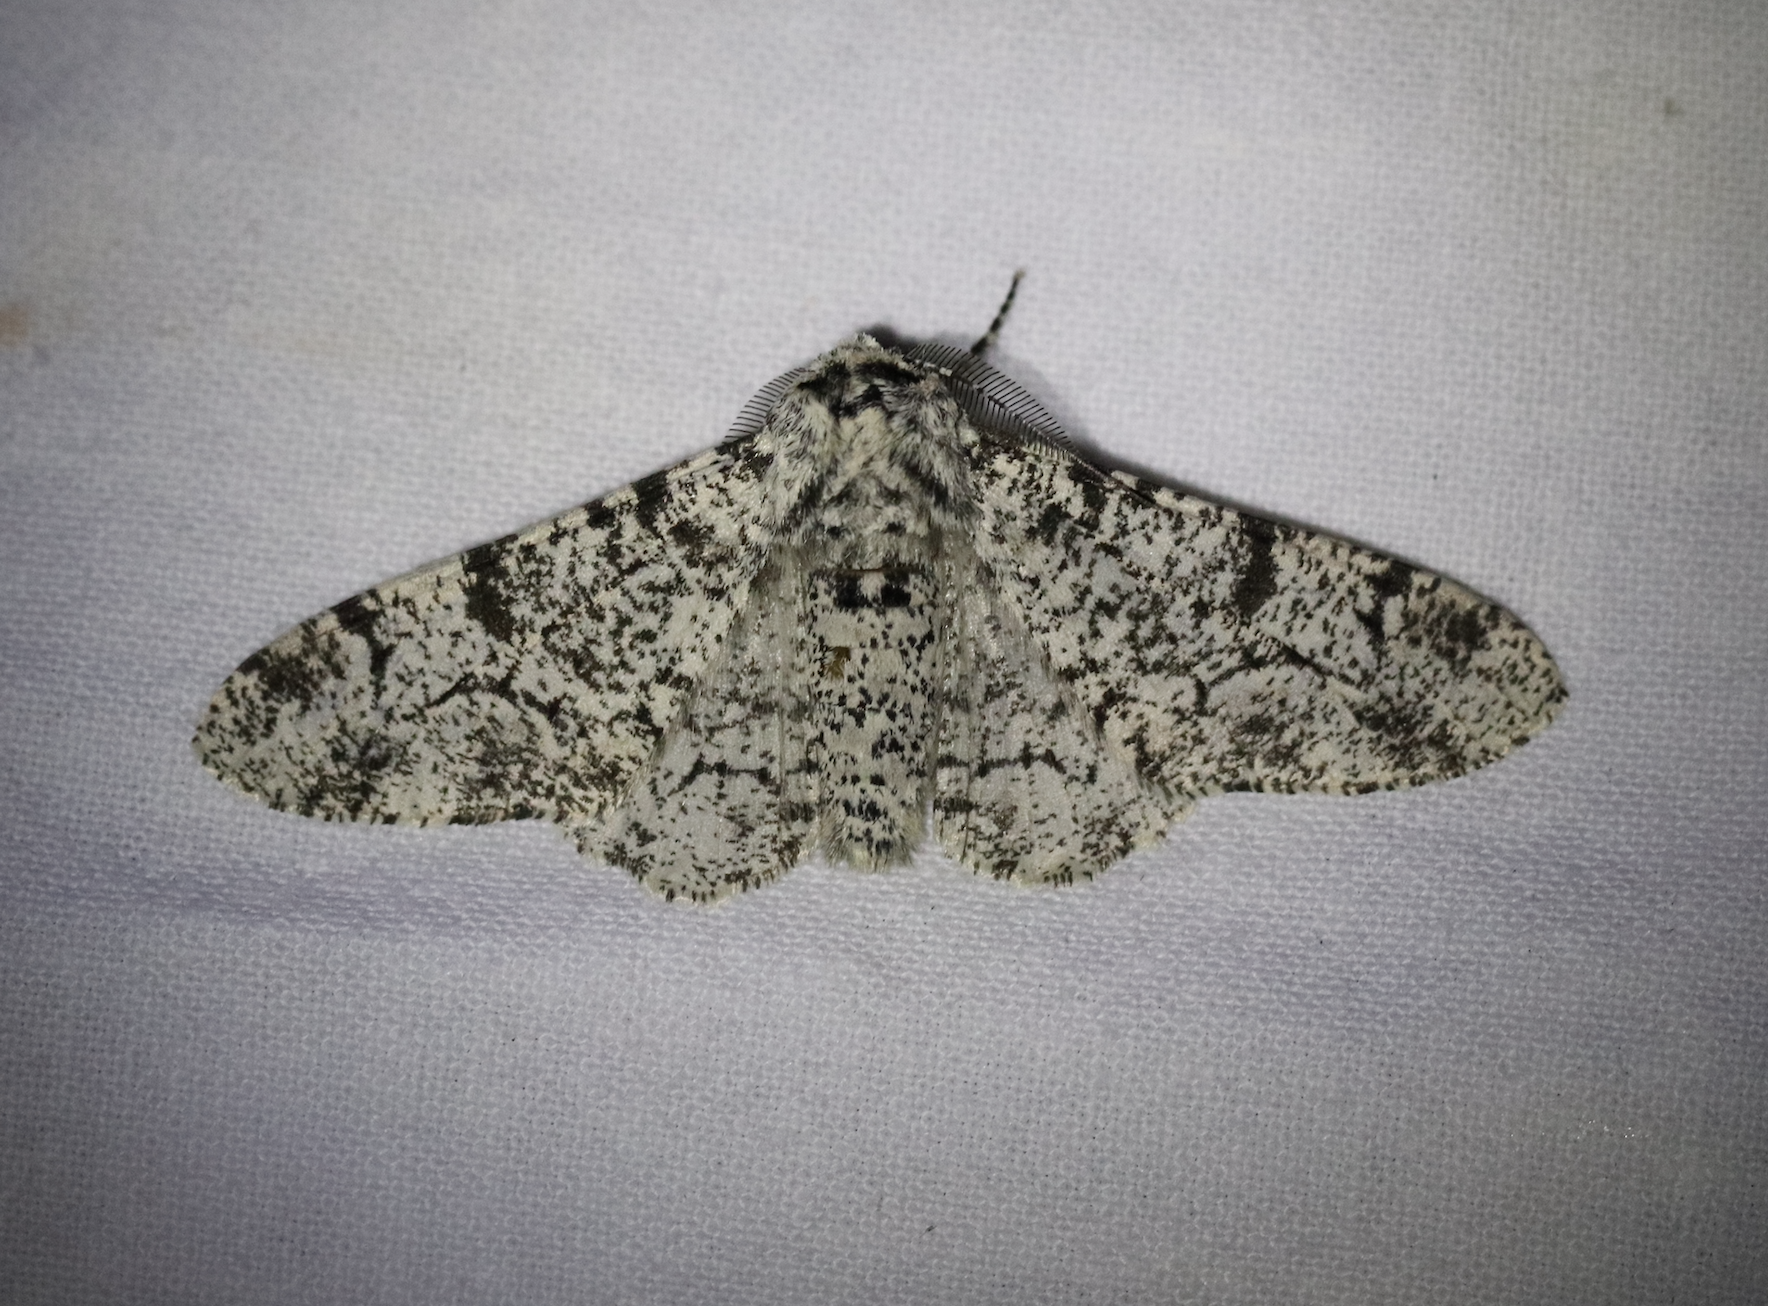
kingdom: Animalia
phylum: Arthropoda
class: Insecta
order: Lepidoptera
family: Geometridae
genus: Biston
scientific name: Biston betularia
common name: Peppered moth
